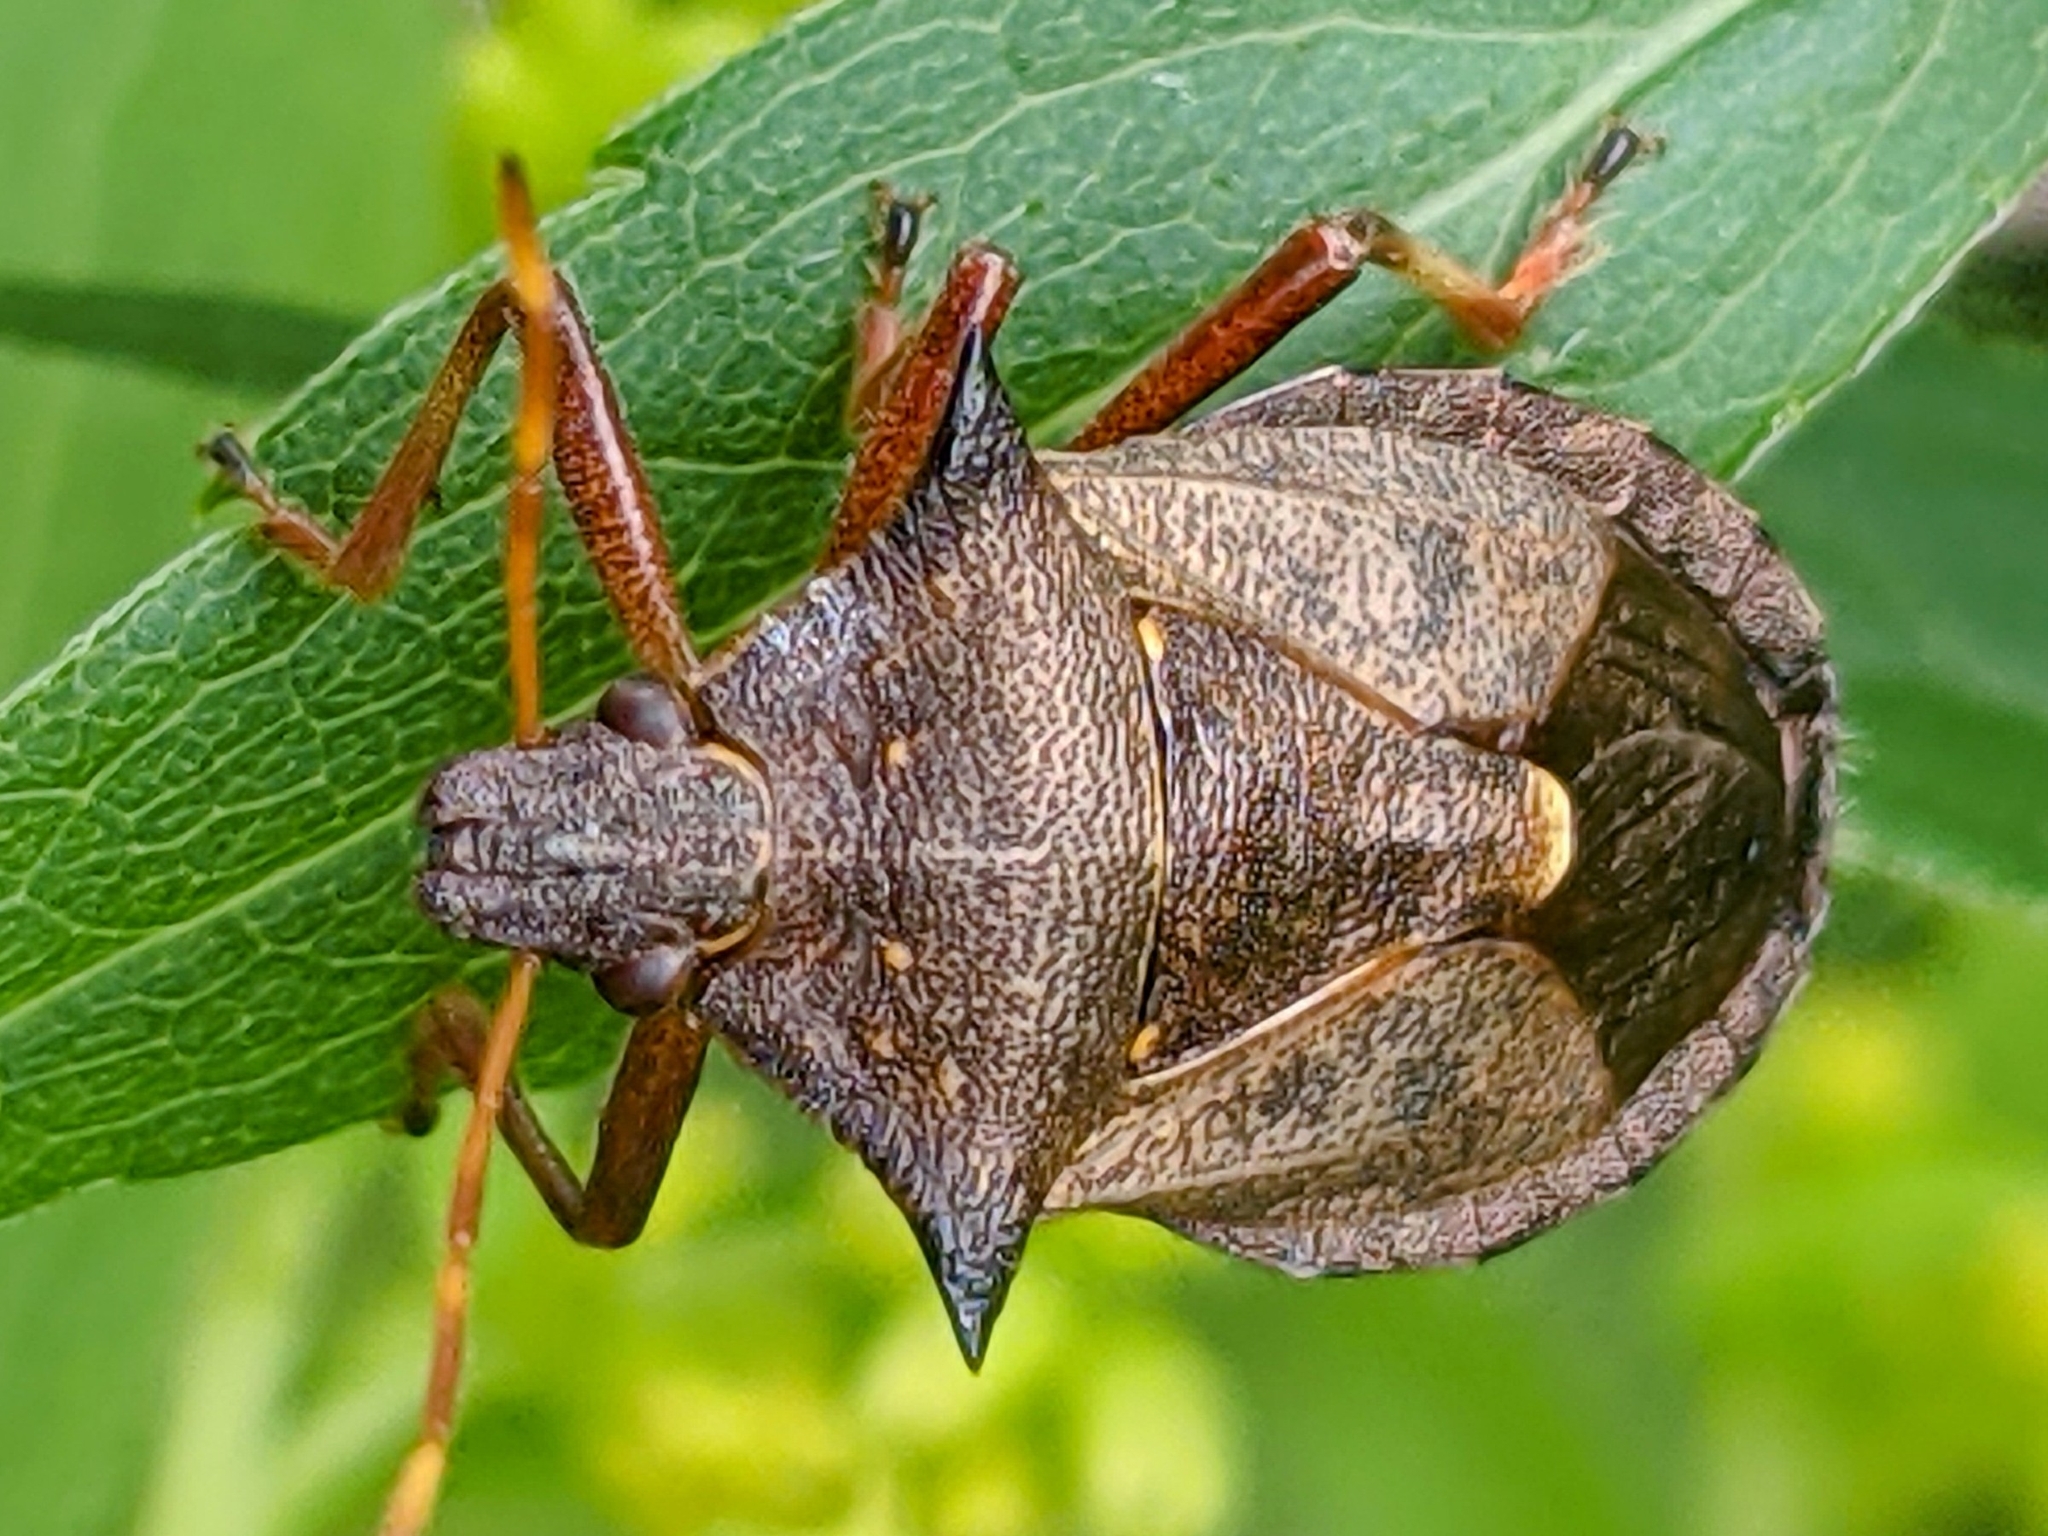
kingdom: Animalia
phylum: Arthropoda
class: Insecta
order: Hemiptera
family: Pentatomidae
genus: Picromerus
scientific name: Picromerus bidens
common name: Spiked shieldbug
